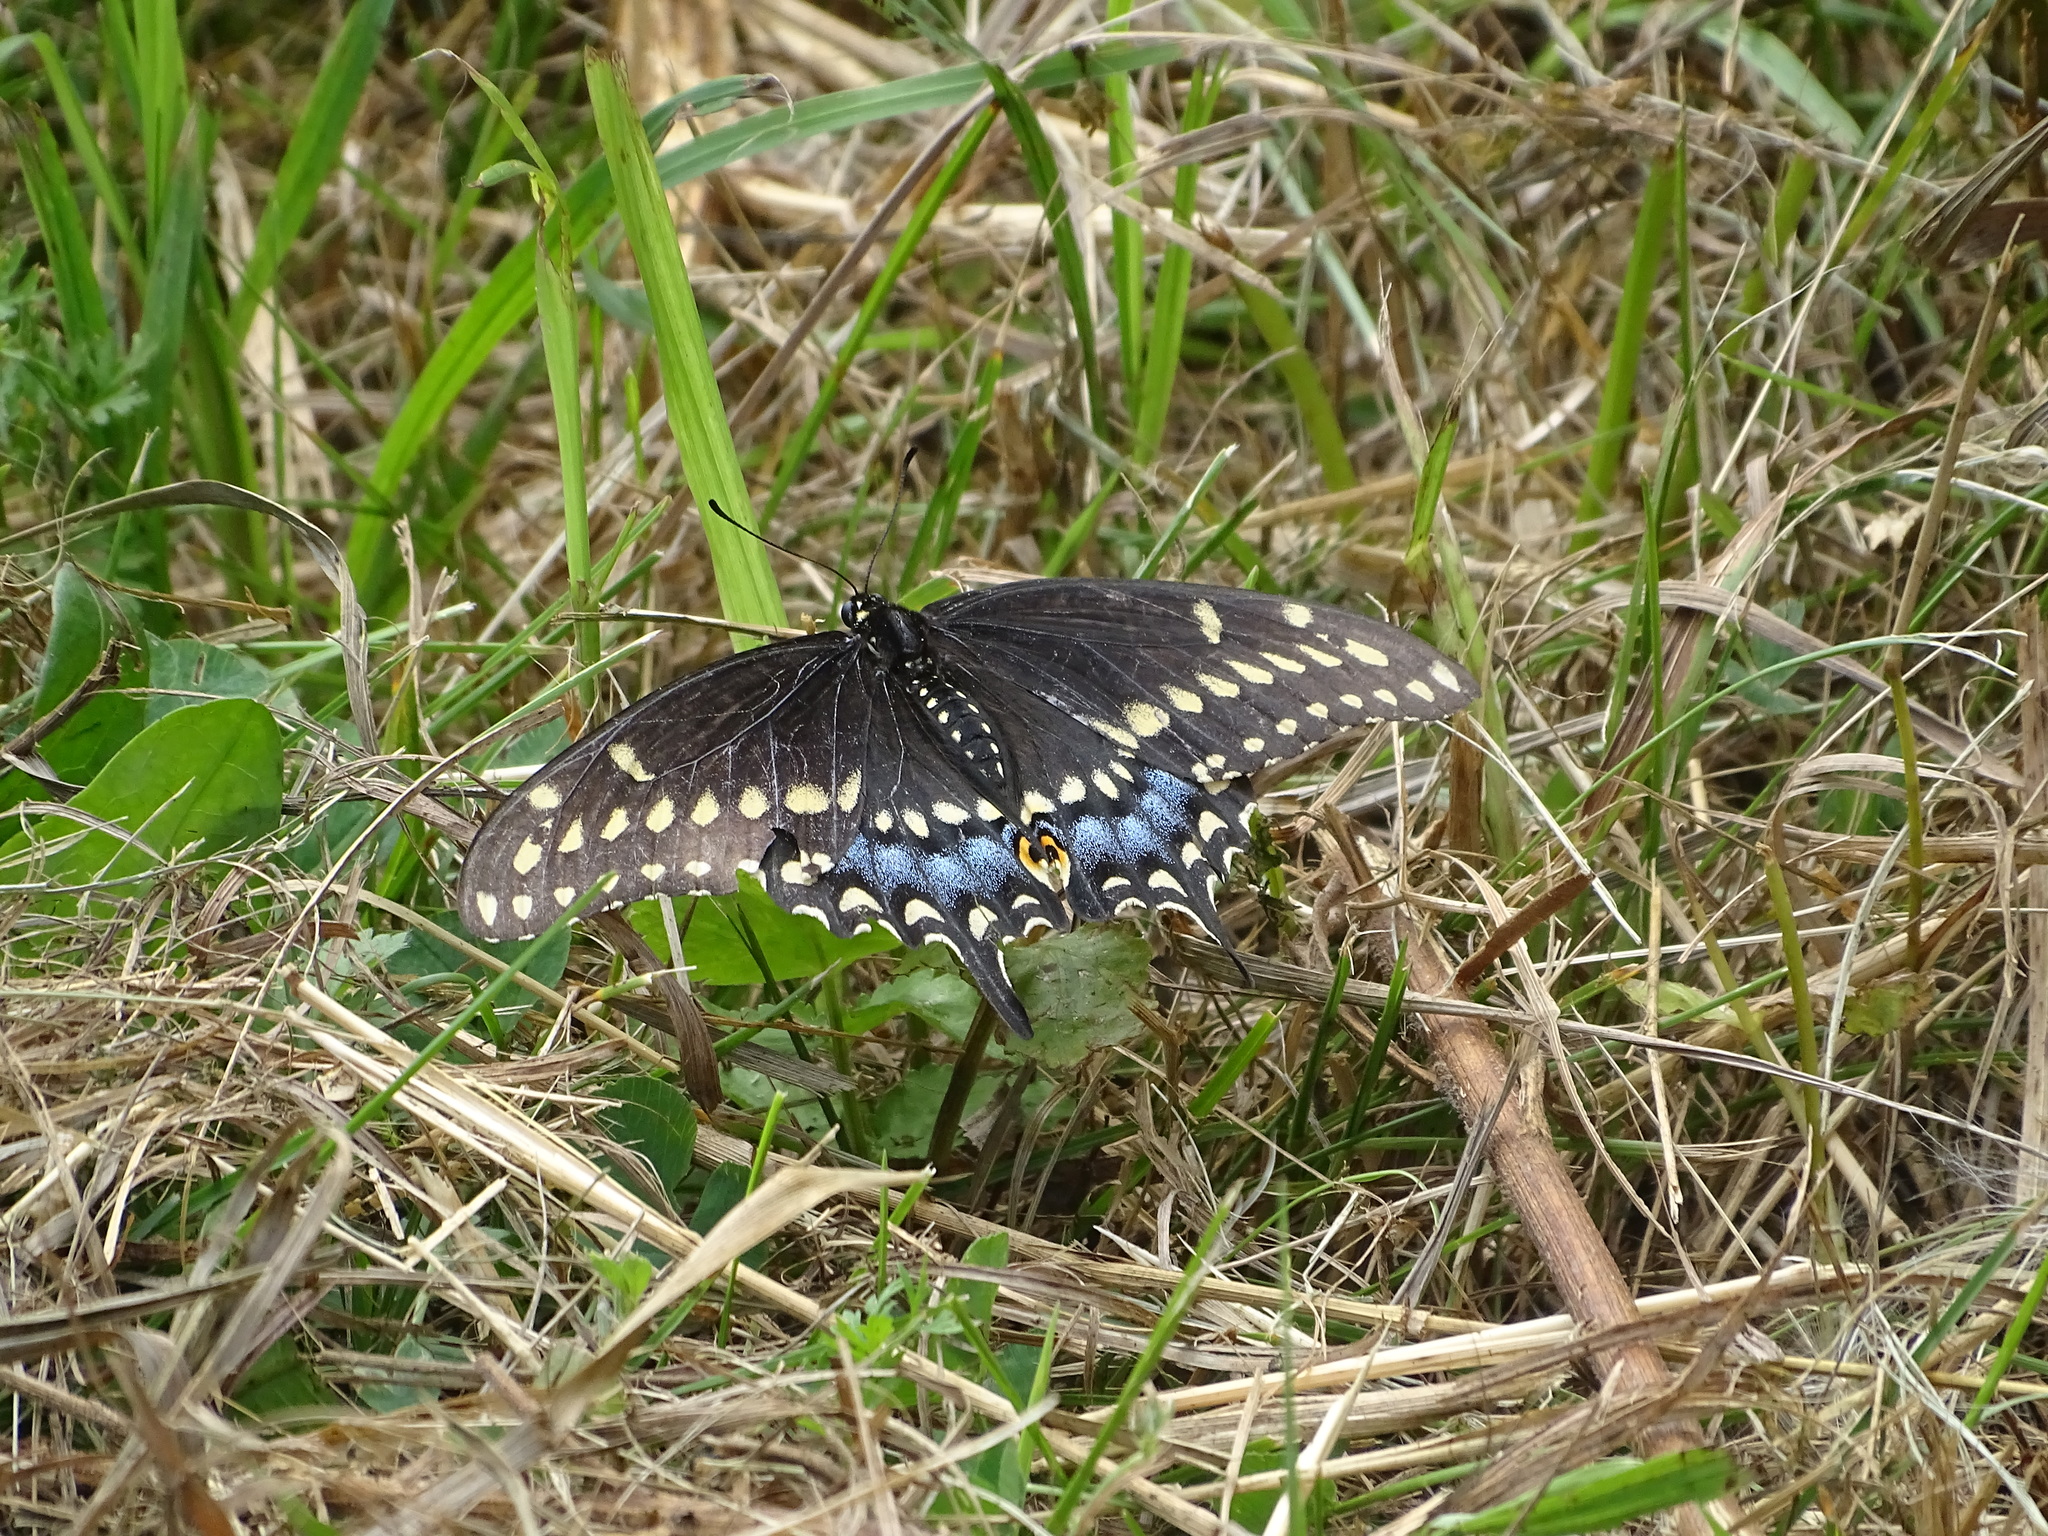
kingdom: Animalia
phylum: Arthropoda
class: Insecta
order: Lepidoptera
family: Papilionidae
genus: Papilio
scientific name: Papilio polyxenes
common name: Black swallowtail
